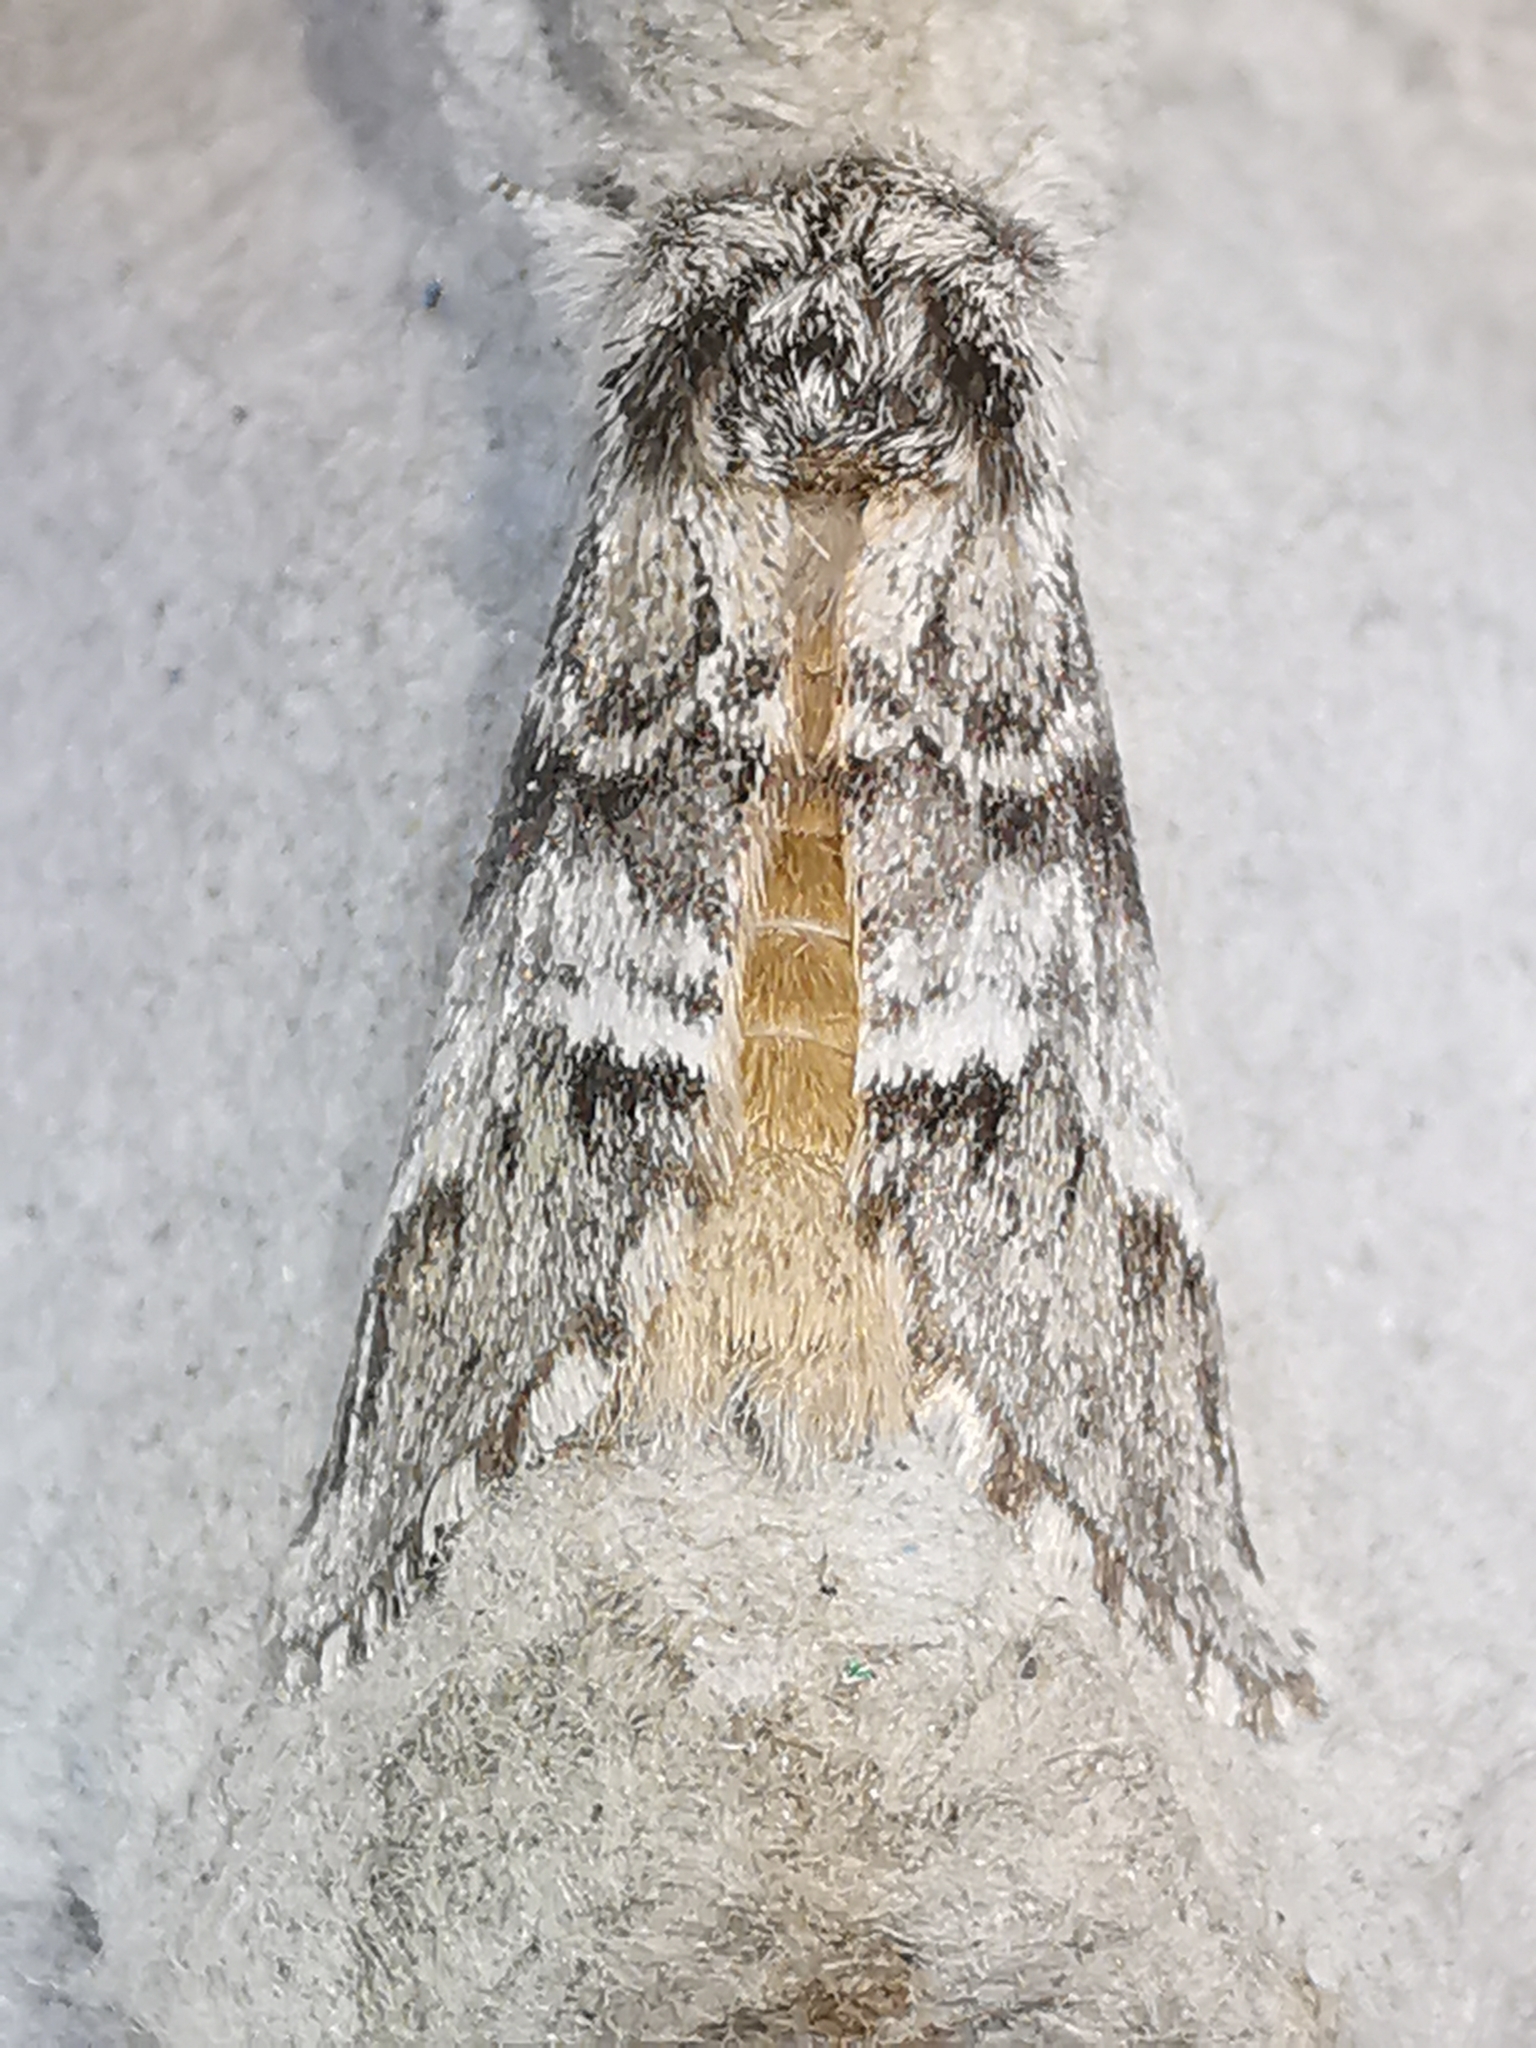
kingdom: Animalia
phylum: Arthropoda
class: Insecta
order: Lepidoptera
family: Notodontidae
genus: Drymonia
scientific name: Drymonia dodonaea
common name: Marbled brown
